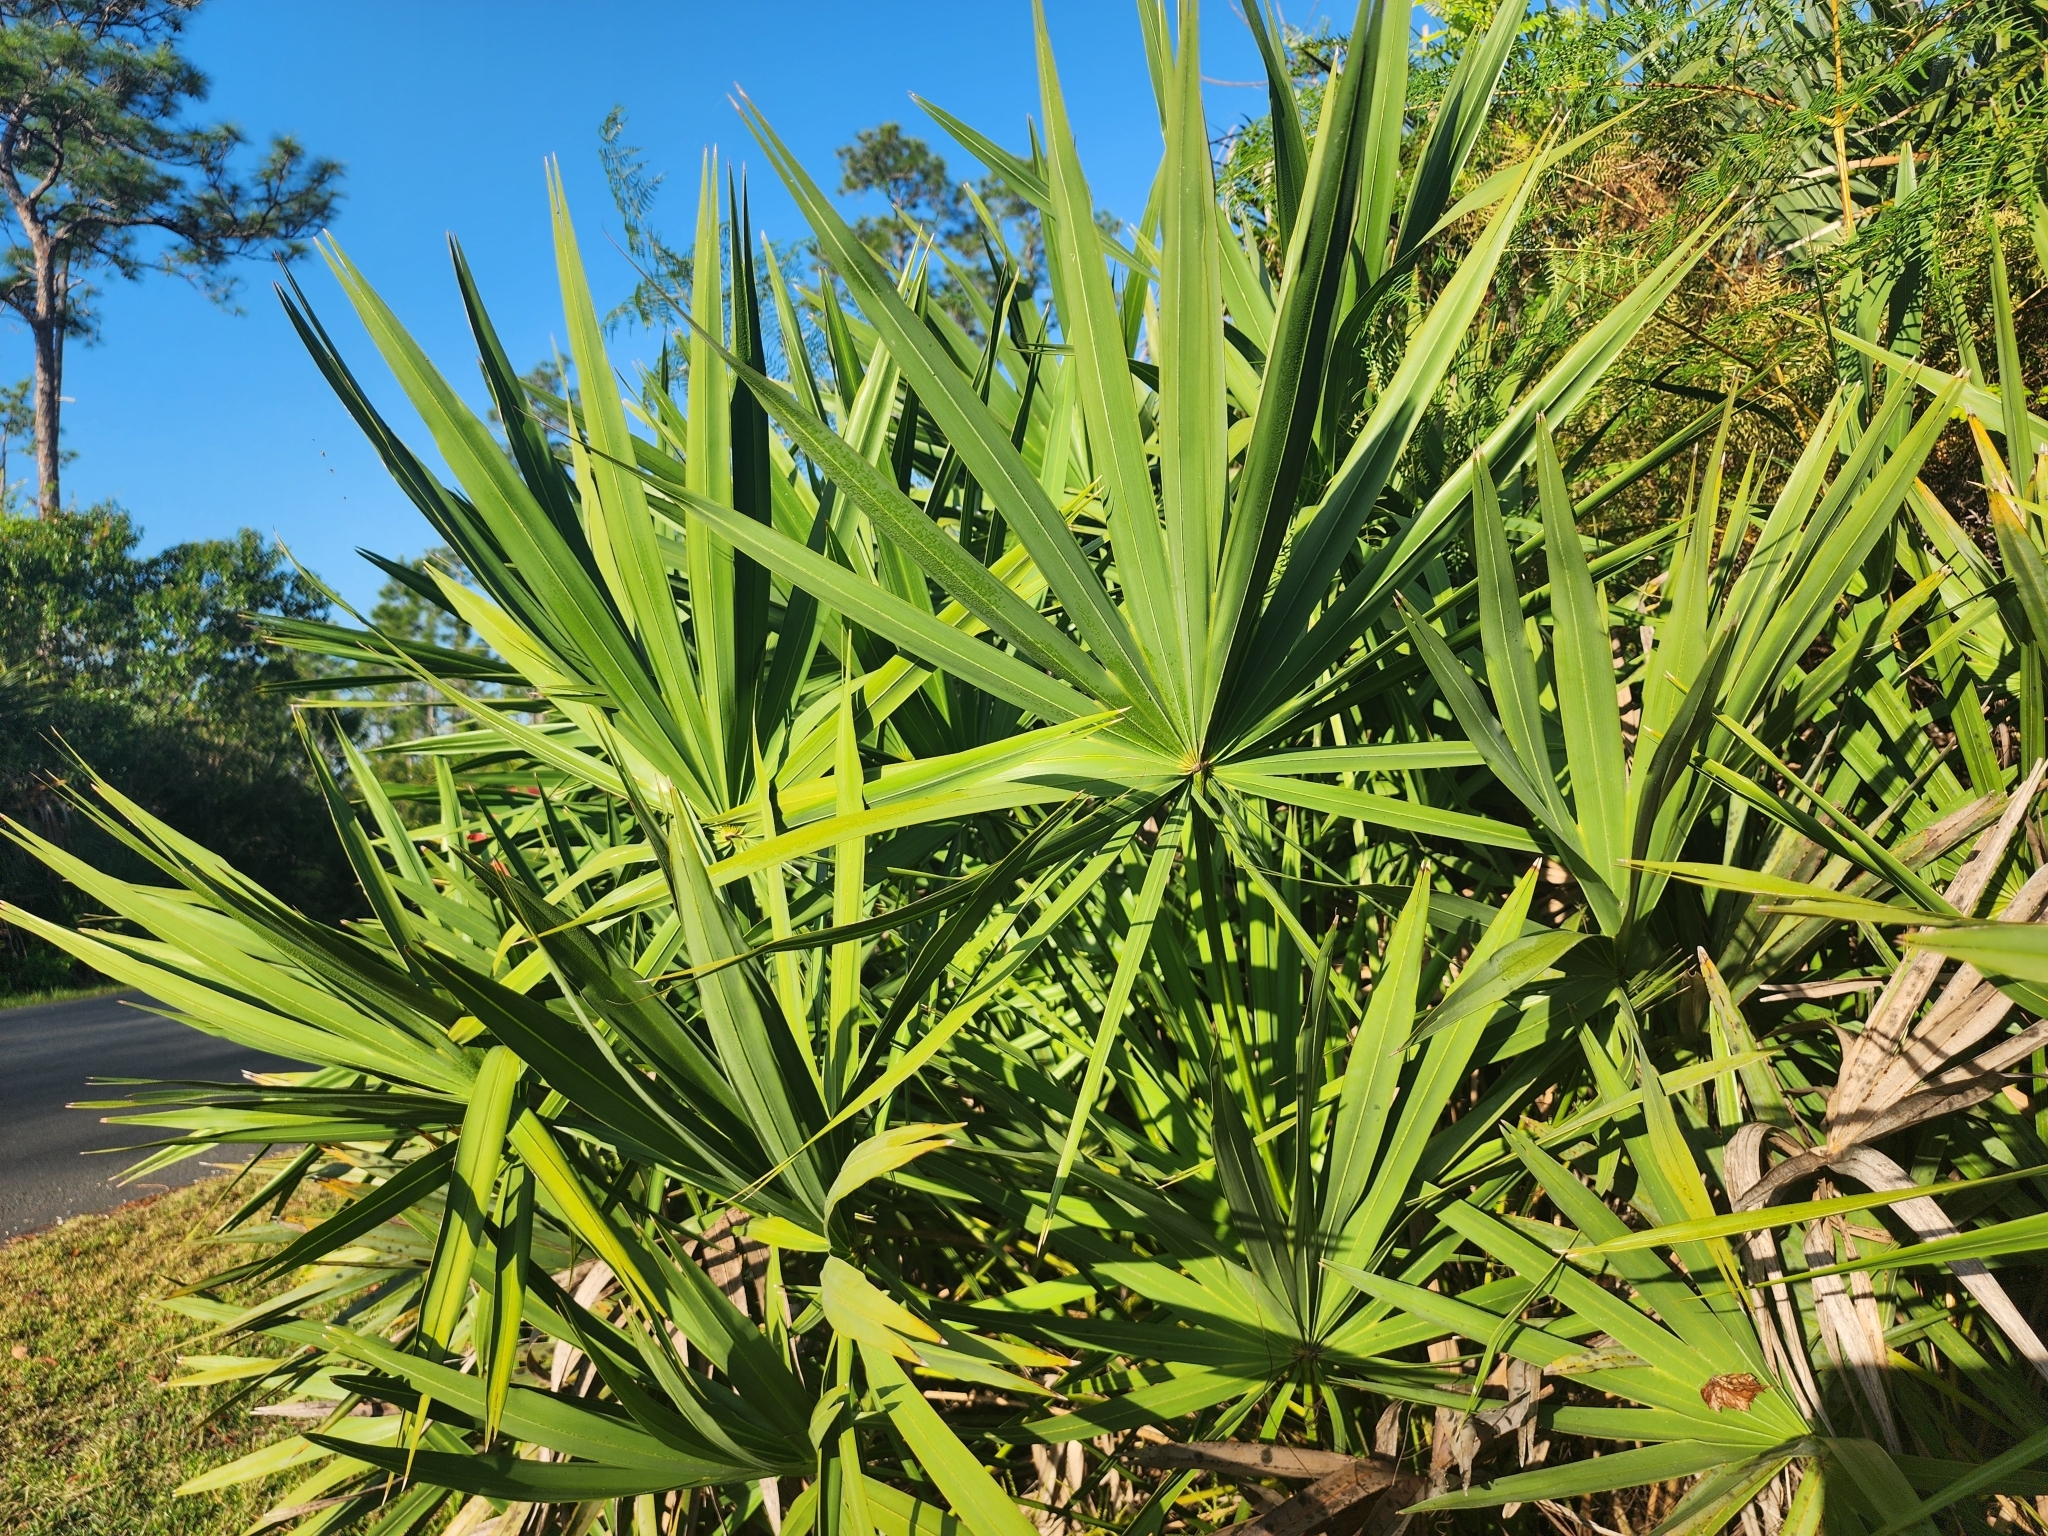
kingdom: Plantae
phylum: Tracheophyta
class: Liliopsida
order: Arecales
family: Arecaceae
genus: Serenoa
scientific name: Serenoa repens
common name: Saw-palmetto
